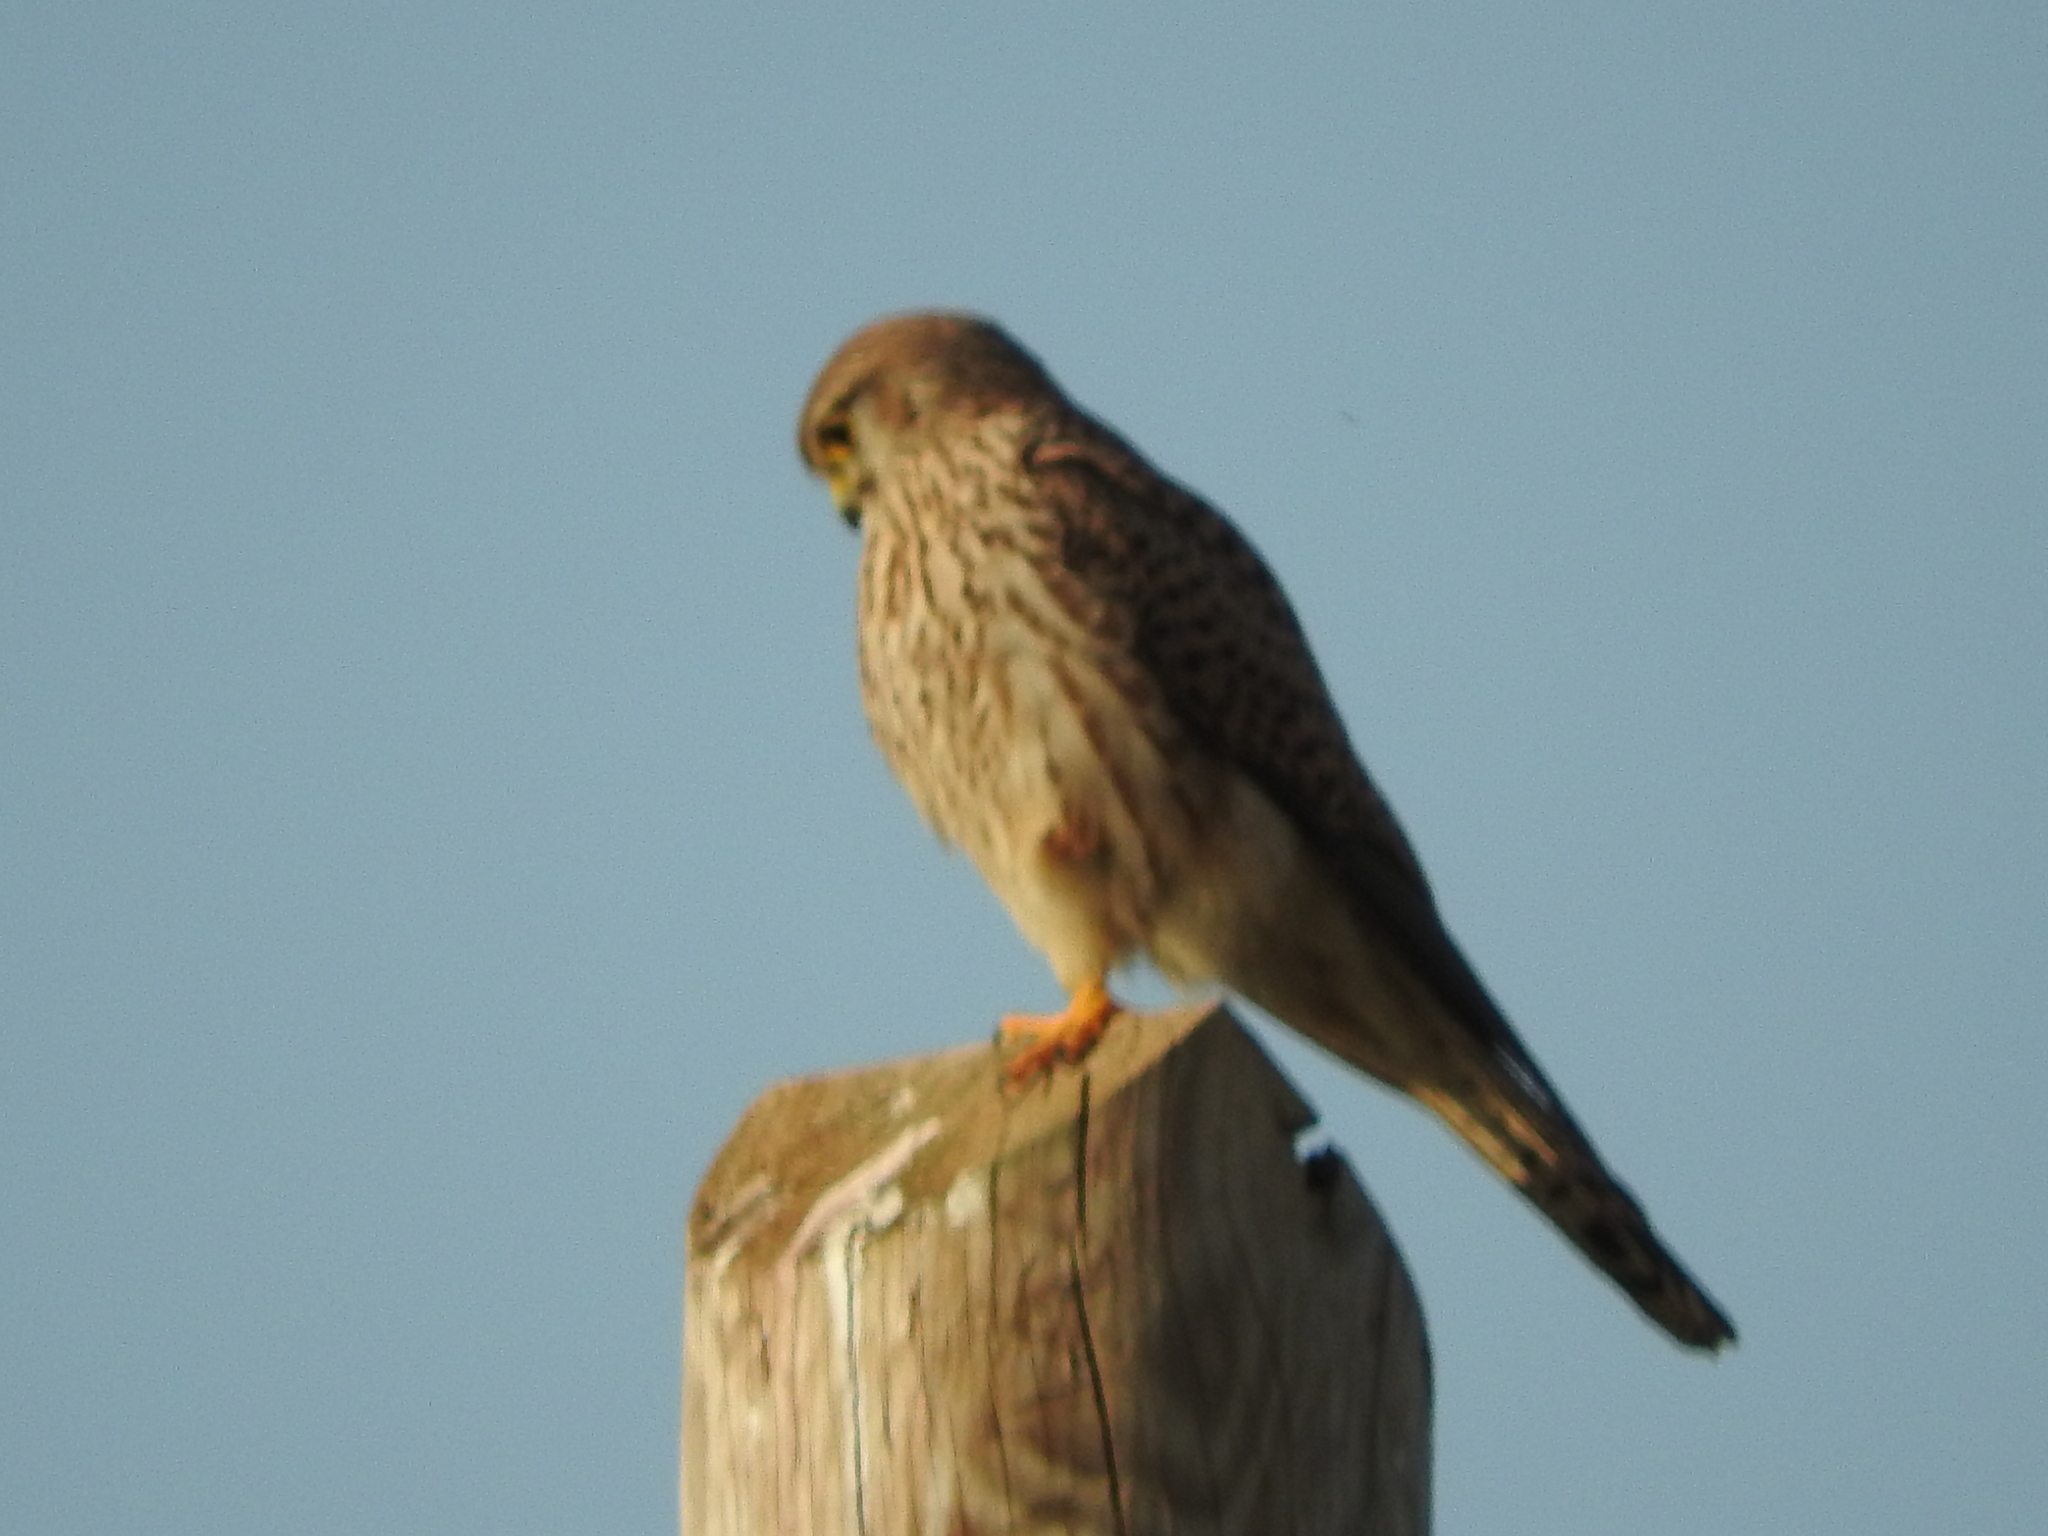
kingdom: Animalia
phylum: Chordata
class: Aves
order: Falconiformes
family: Falconidae
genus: Falco
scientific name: Falco tinnunculus
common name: Common kestrel
